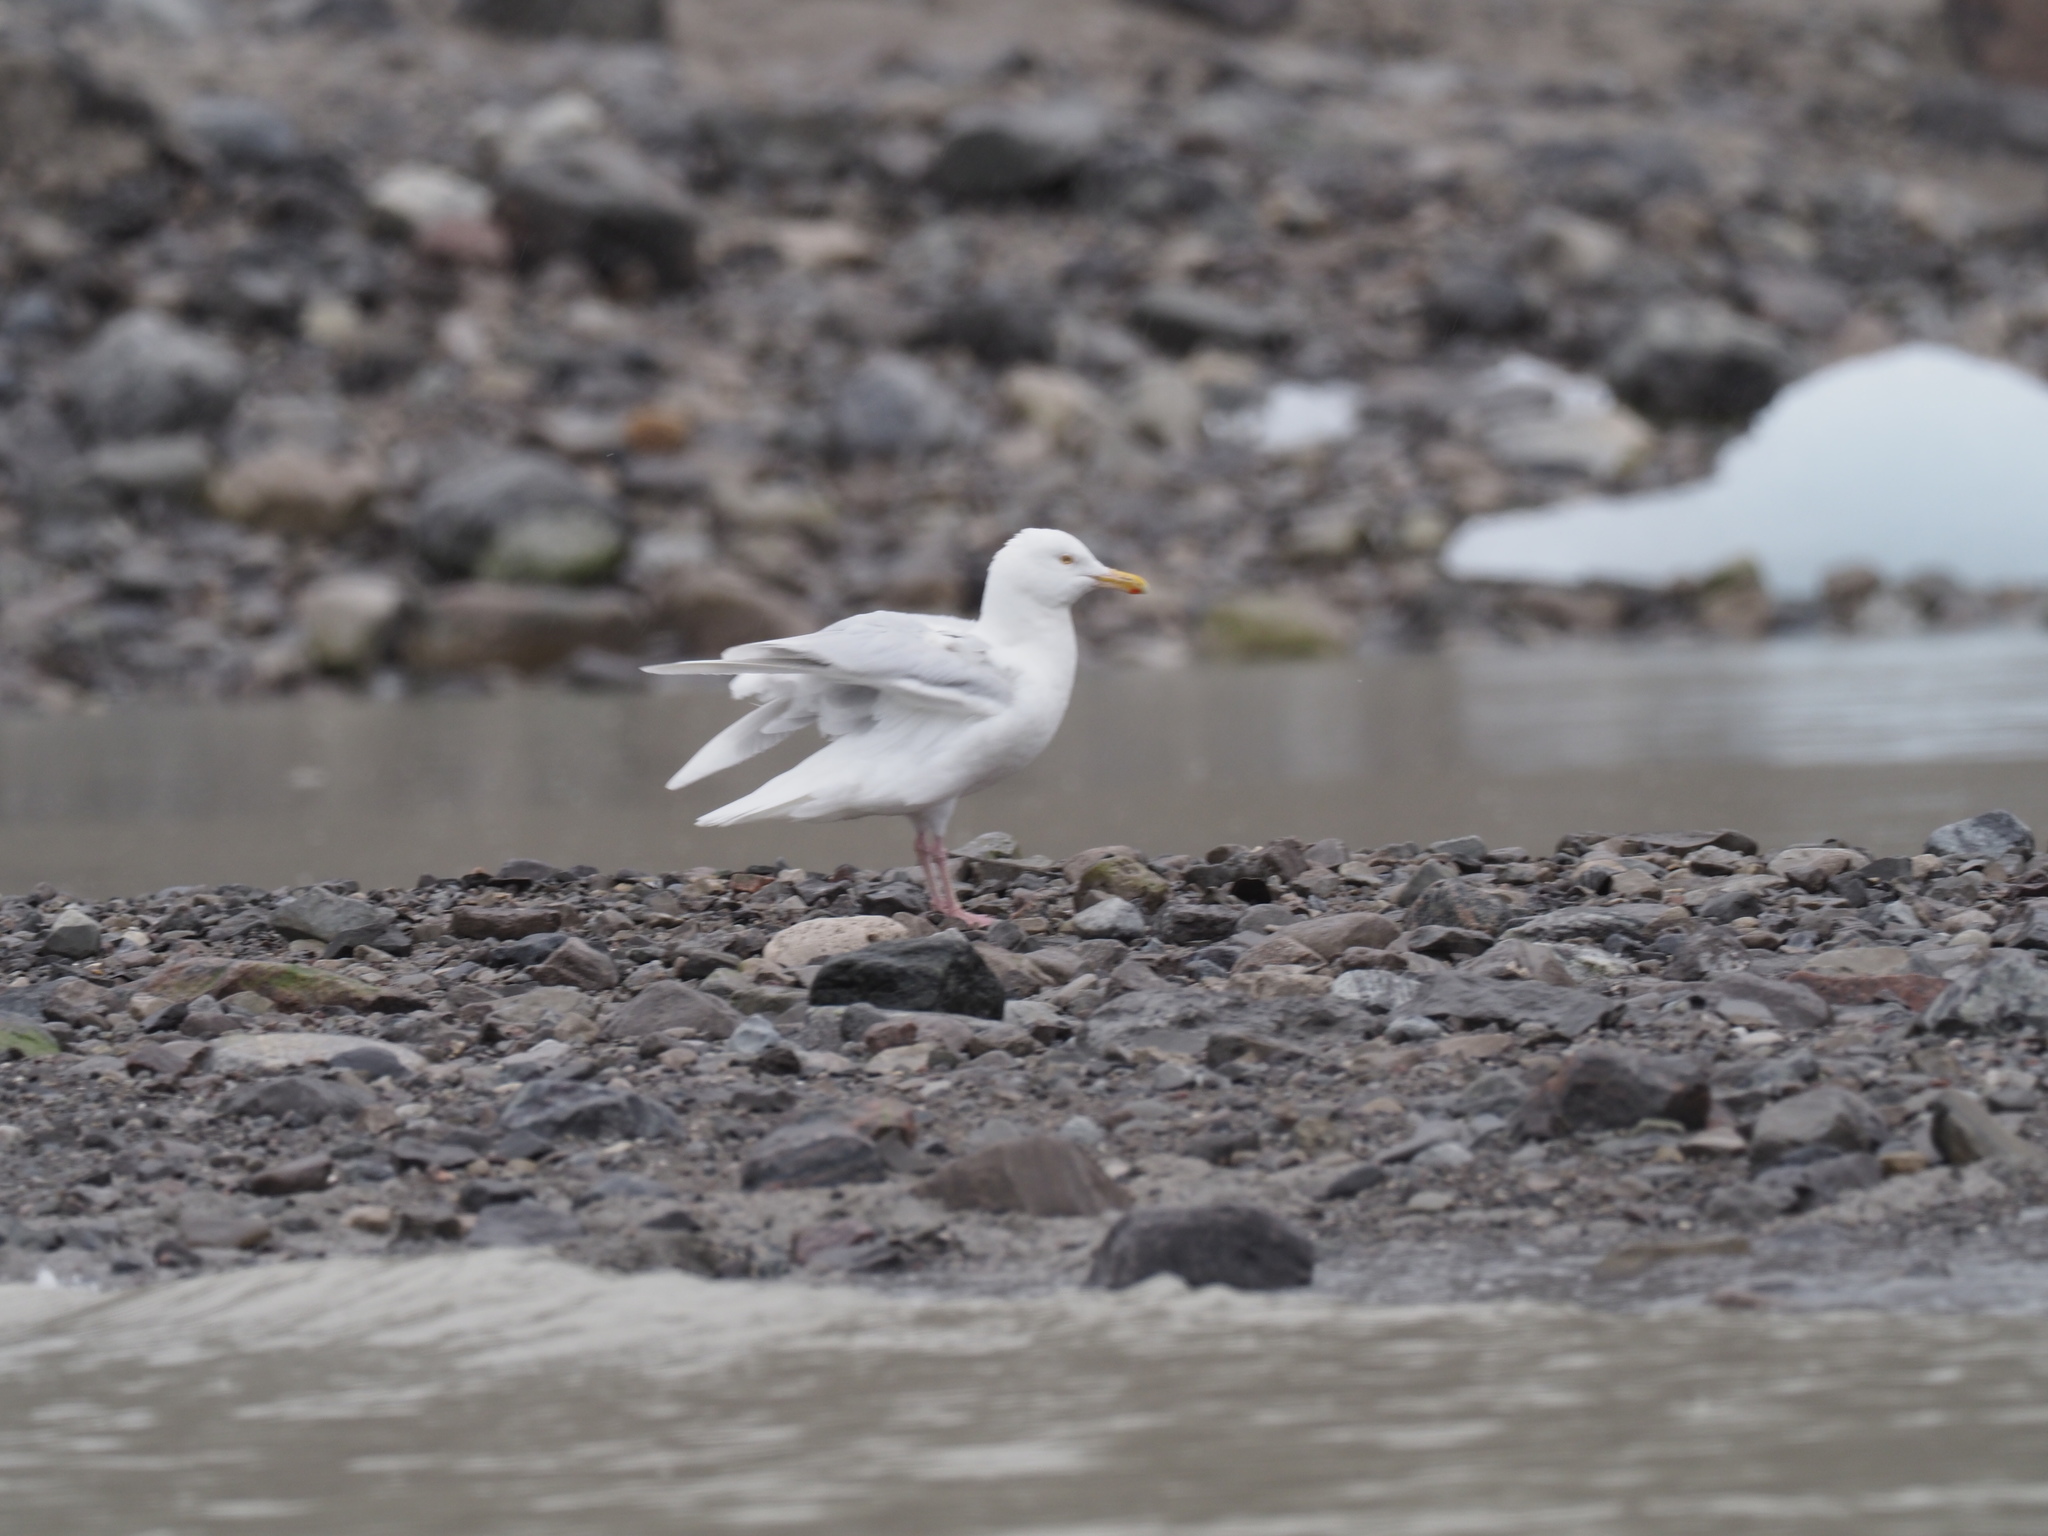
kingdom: Animalia
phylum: Chordata
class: Aves
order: Charadriiformes
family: Laridae
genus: Larus
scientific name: Larus hyperboreus
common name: Glaucous gull
